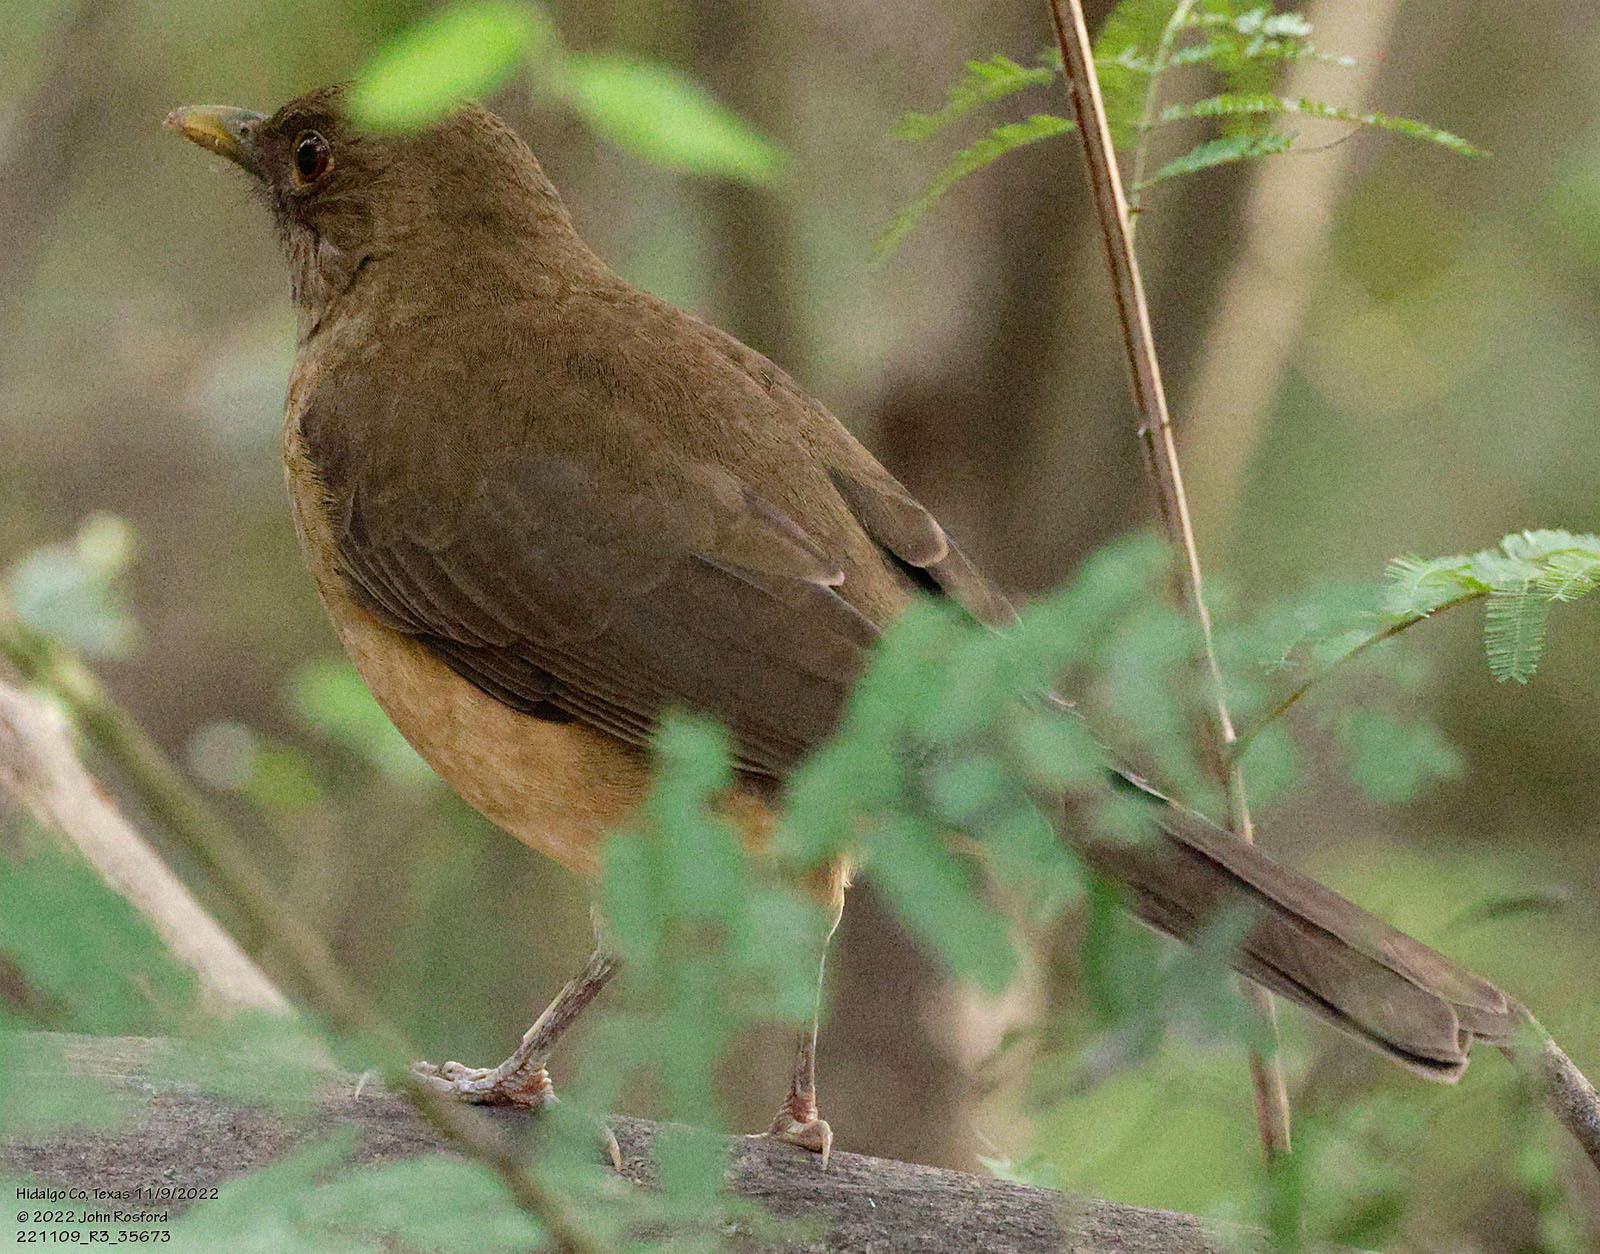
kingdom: Animalia
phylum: Chordata
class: Aves
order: Passeriformes
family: Turdidae
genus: Turdus
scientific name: Turdus grayi
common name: Clay-colored thrush
